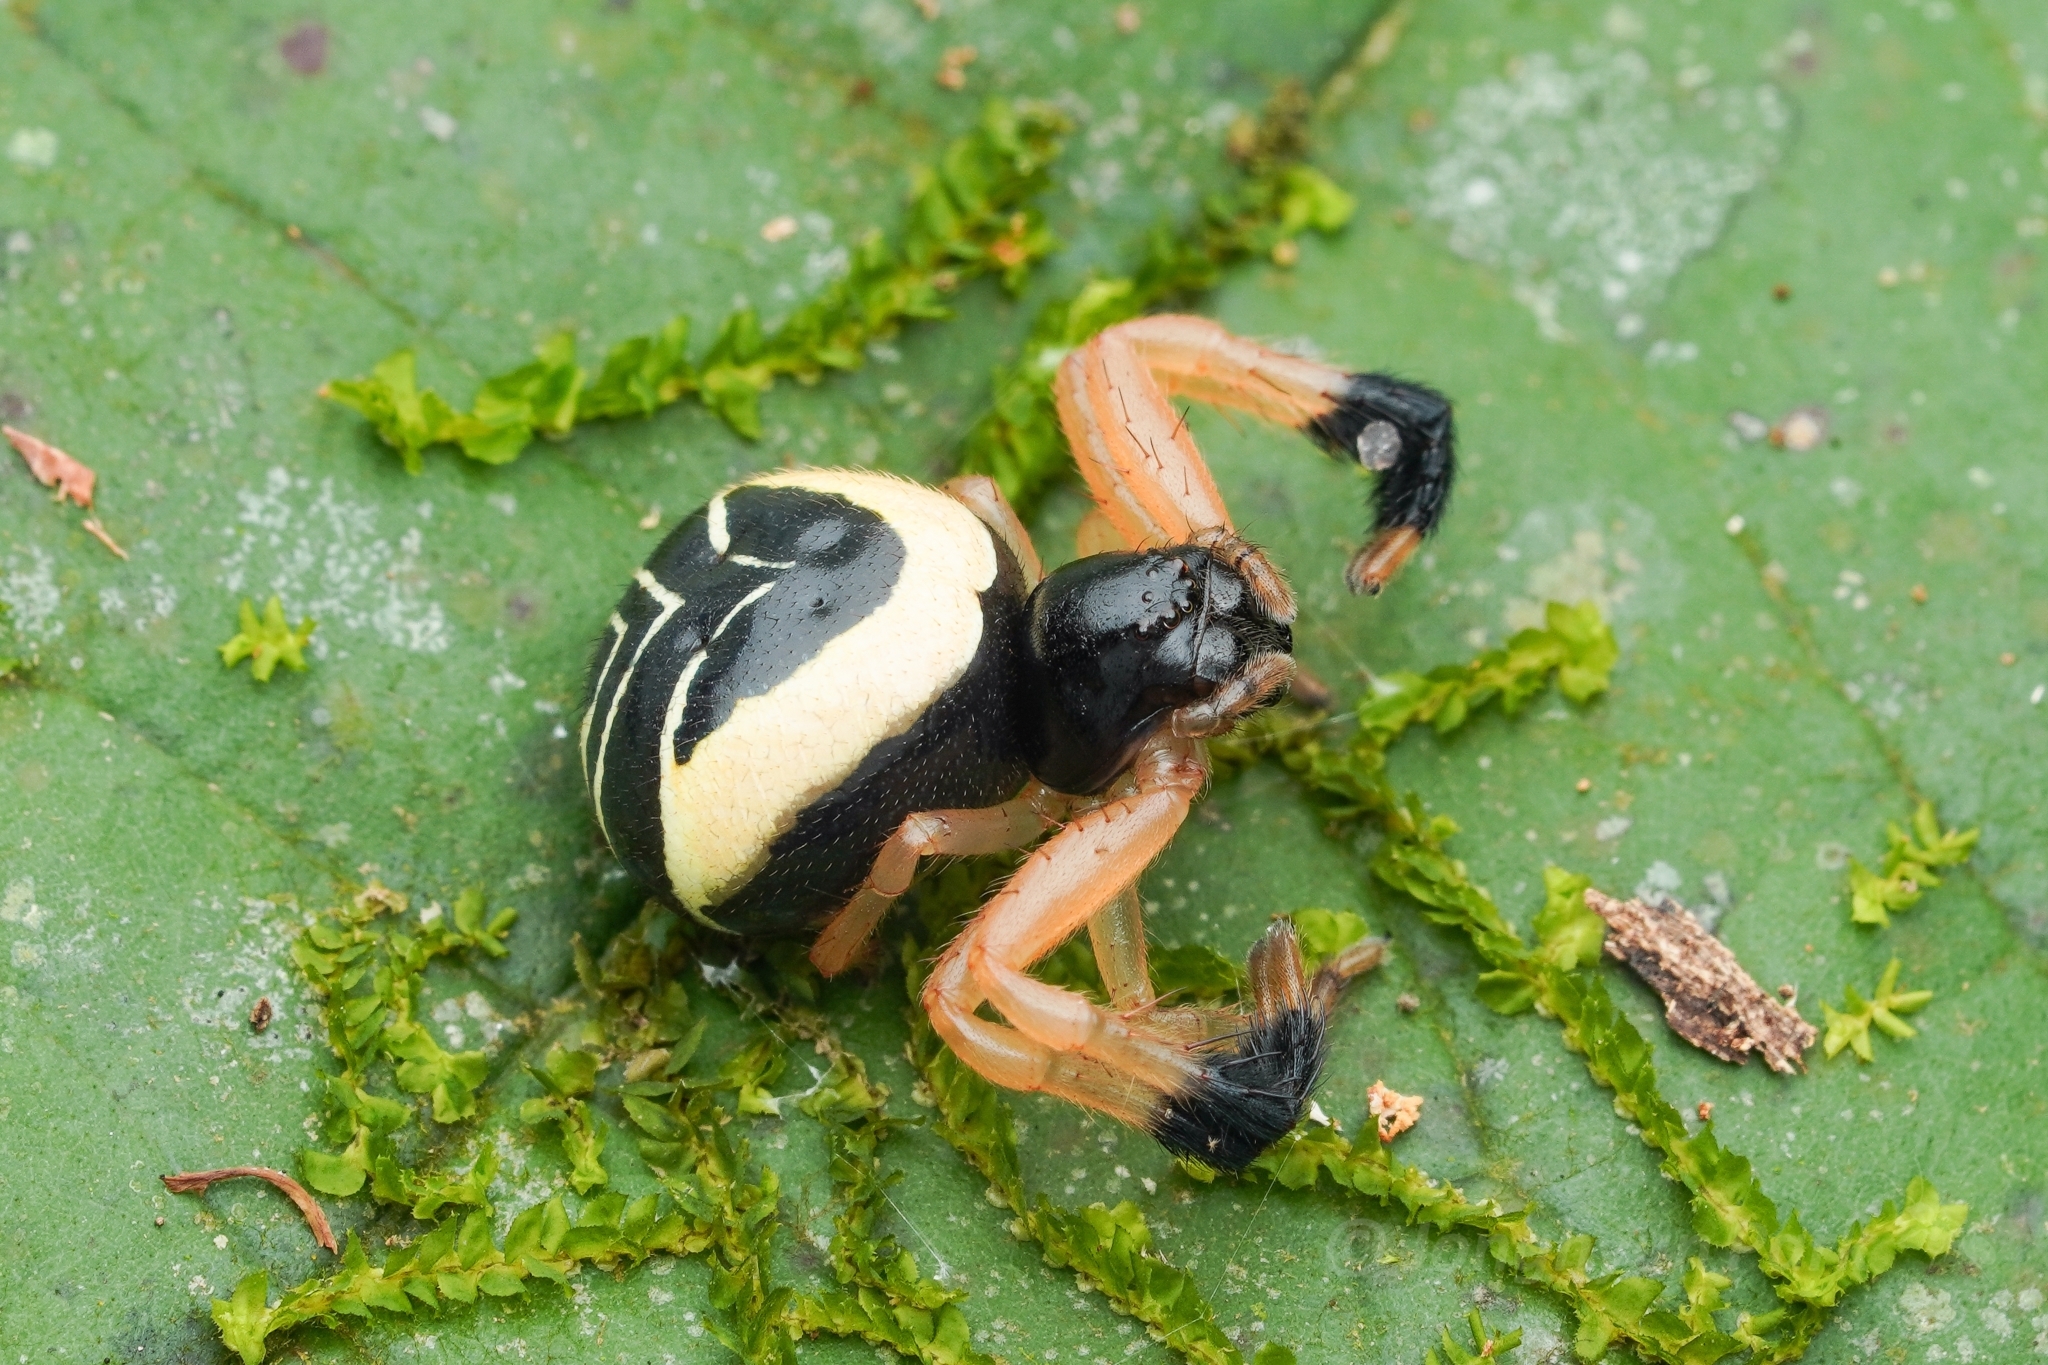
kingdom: Animalia
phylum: Arthropoda
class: Arachnida
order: Araneae
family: Thomisidae
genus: Stephanopoides
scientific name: Stephanopoides brasiliana
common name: Crab spiders
